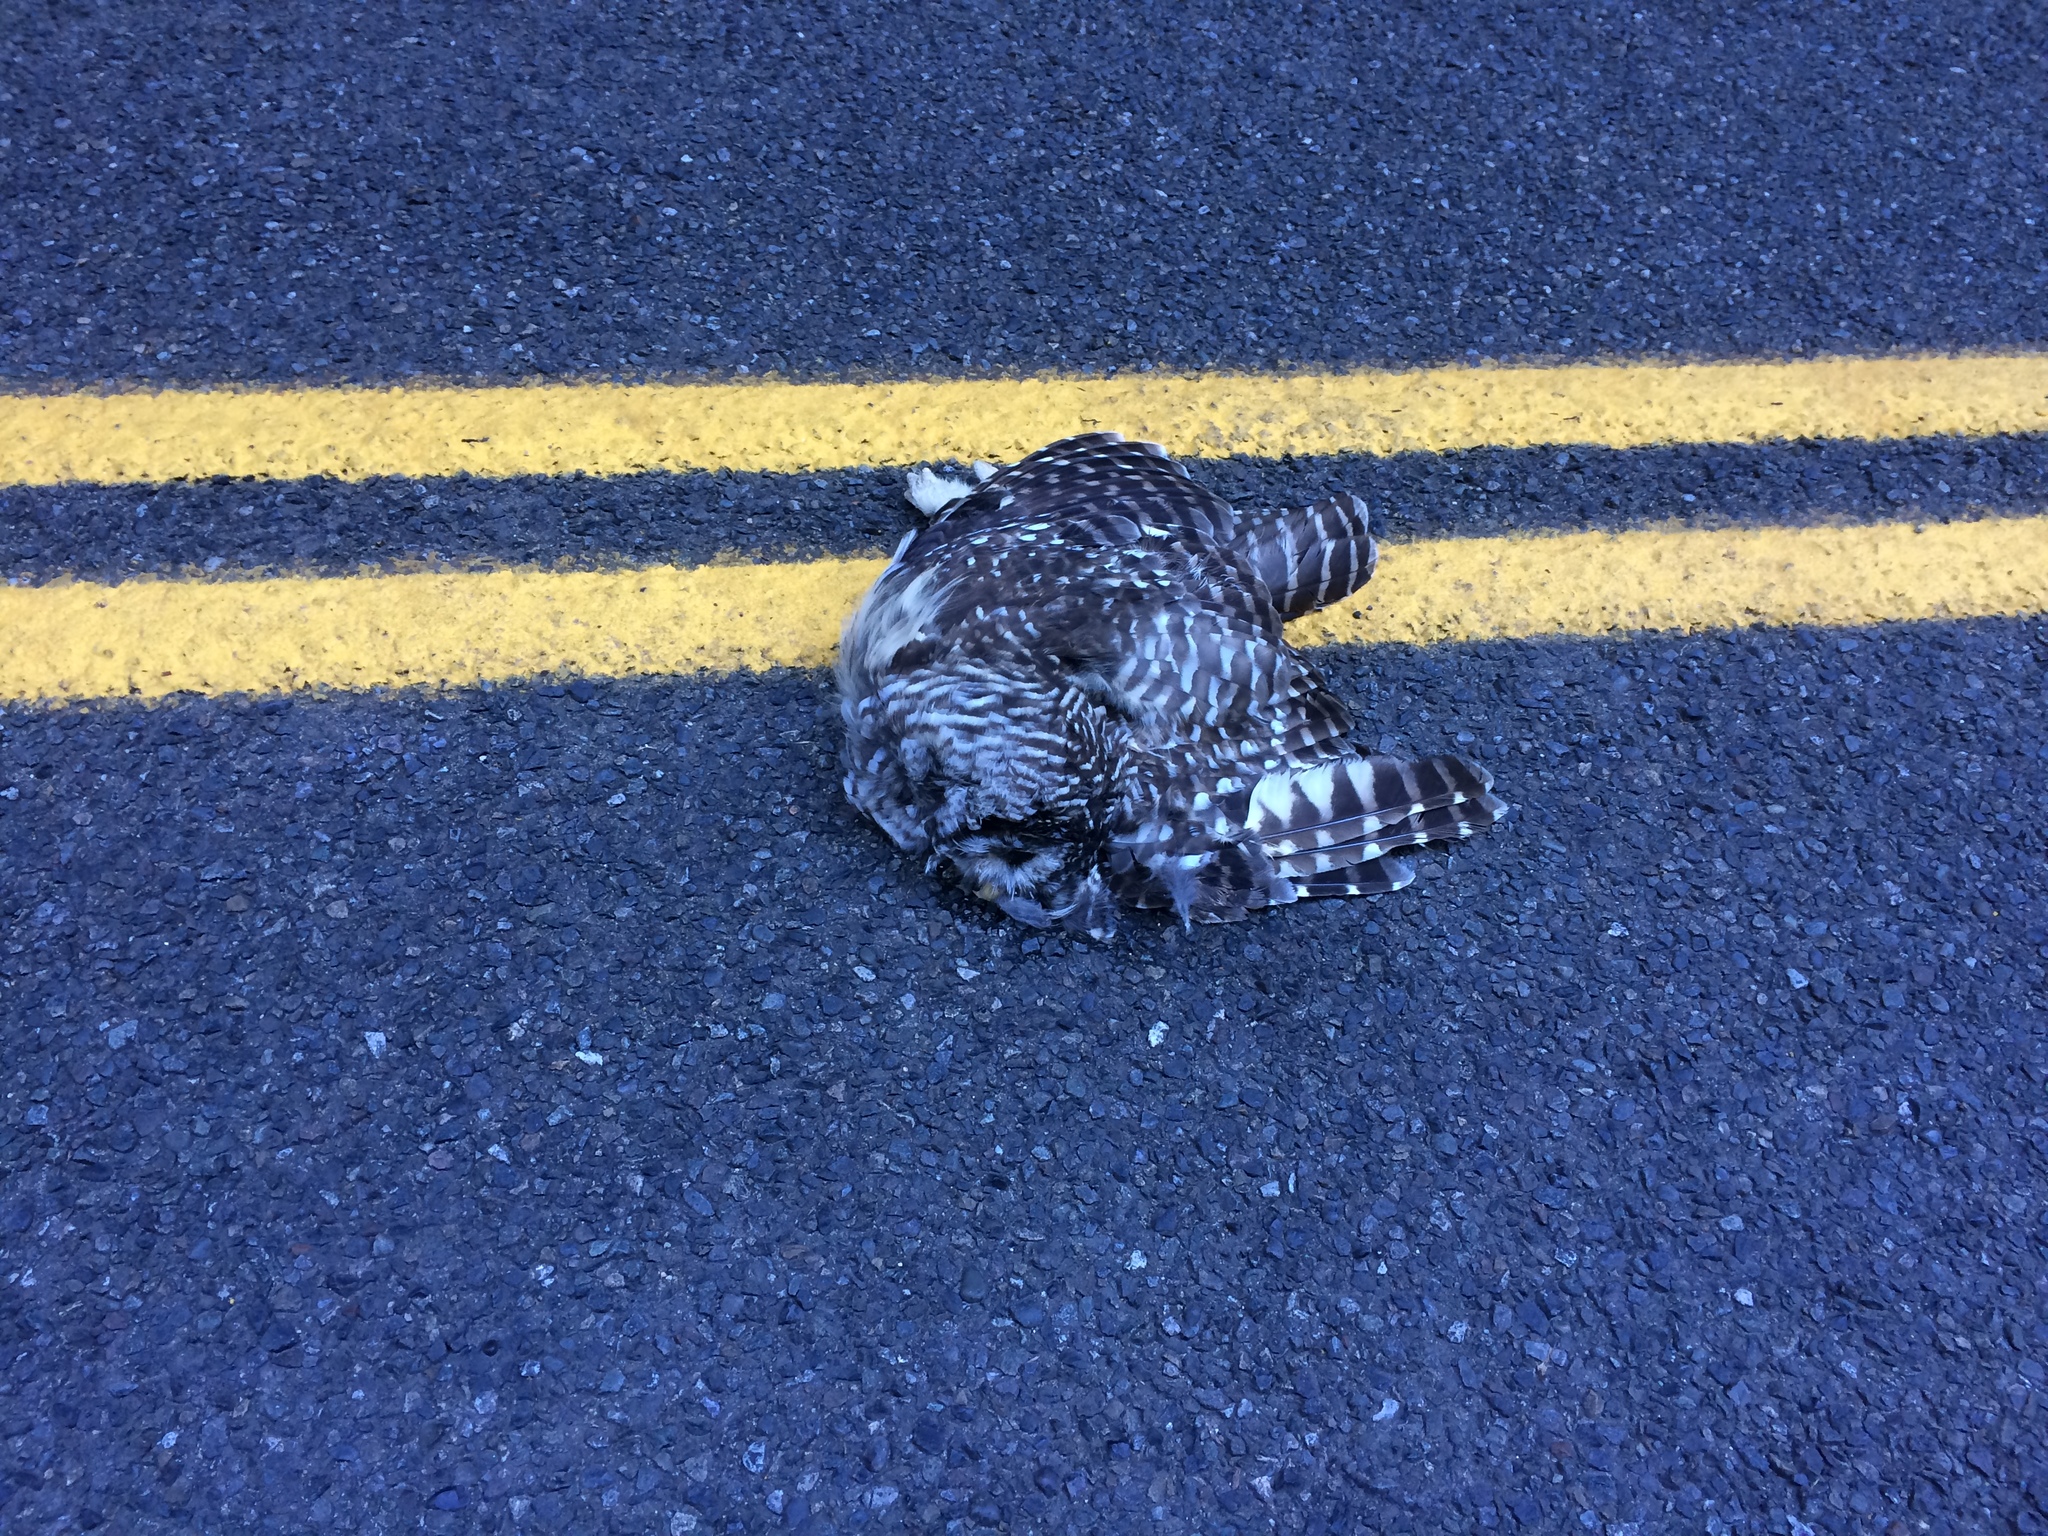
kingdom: Animalia
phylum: Chordata
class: Aves
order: Strigiformes
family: Strigidae
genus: Strix
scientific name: Strix varia
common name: Barred owl
